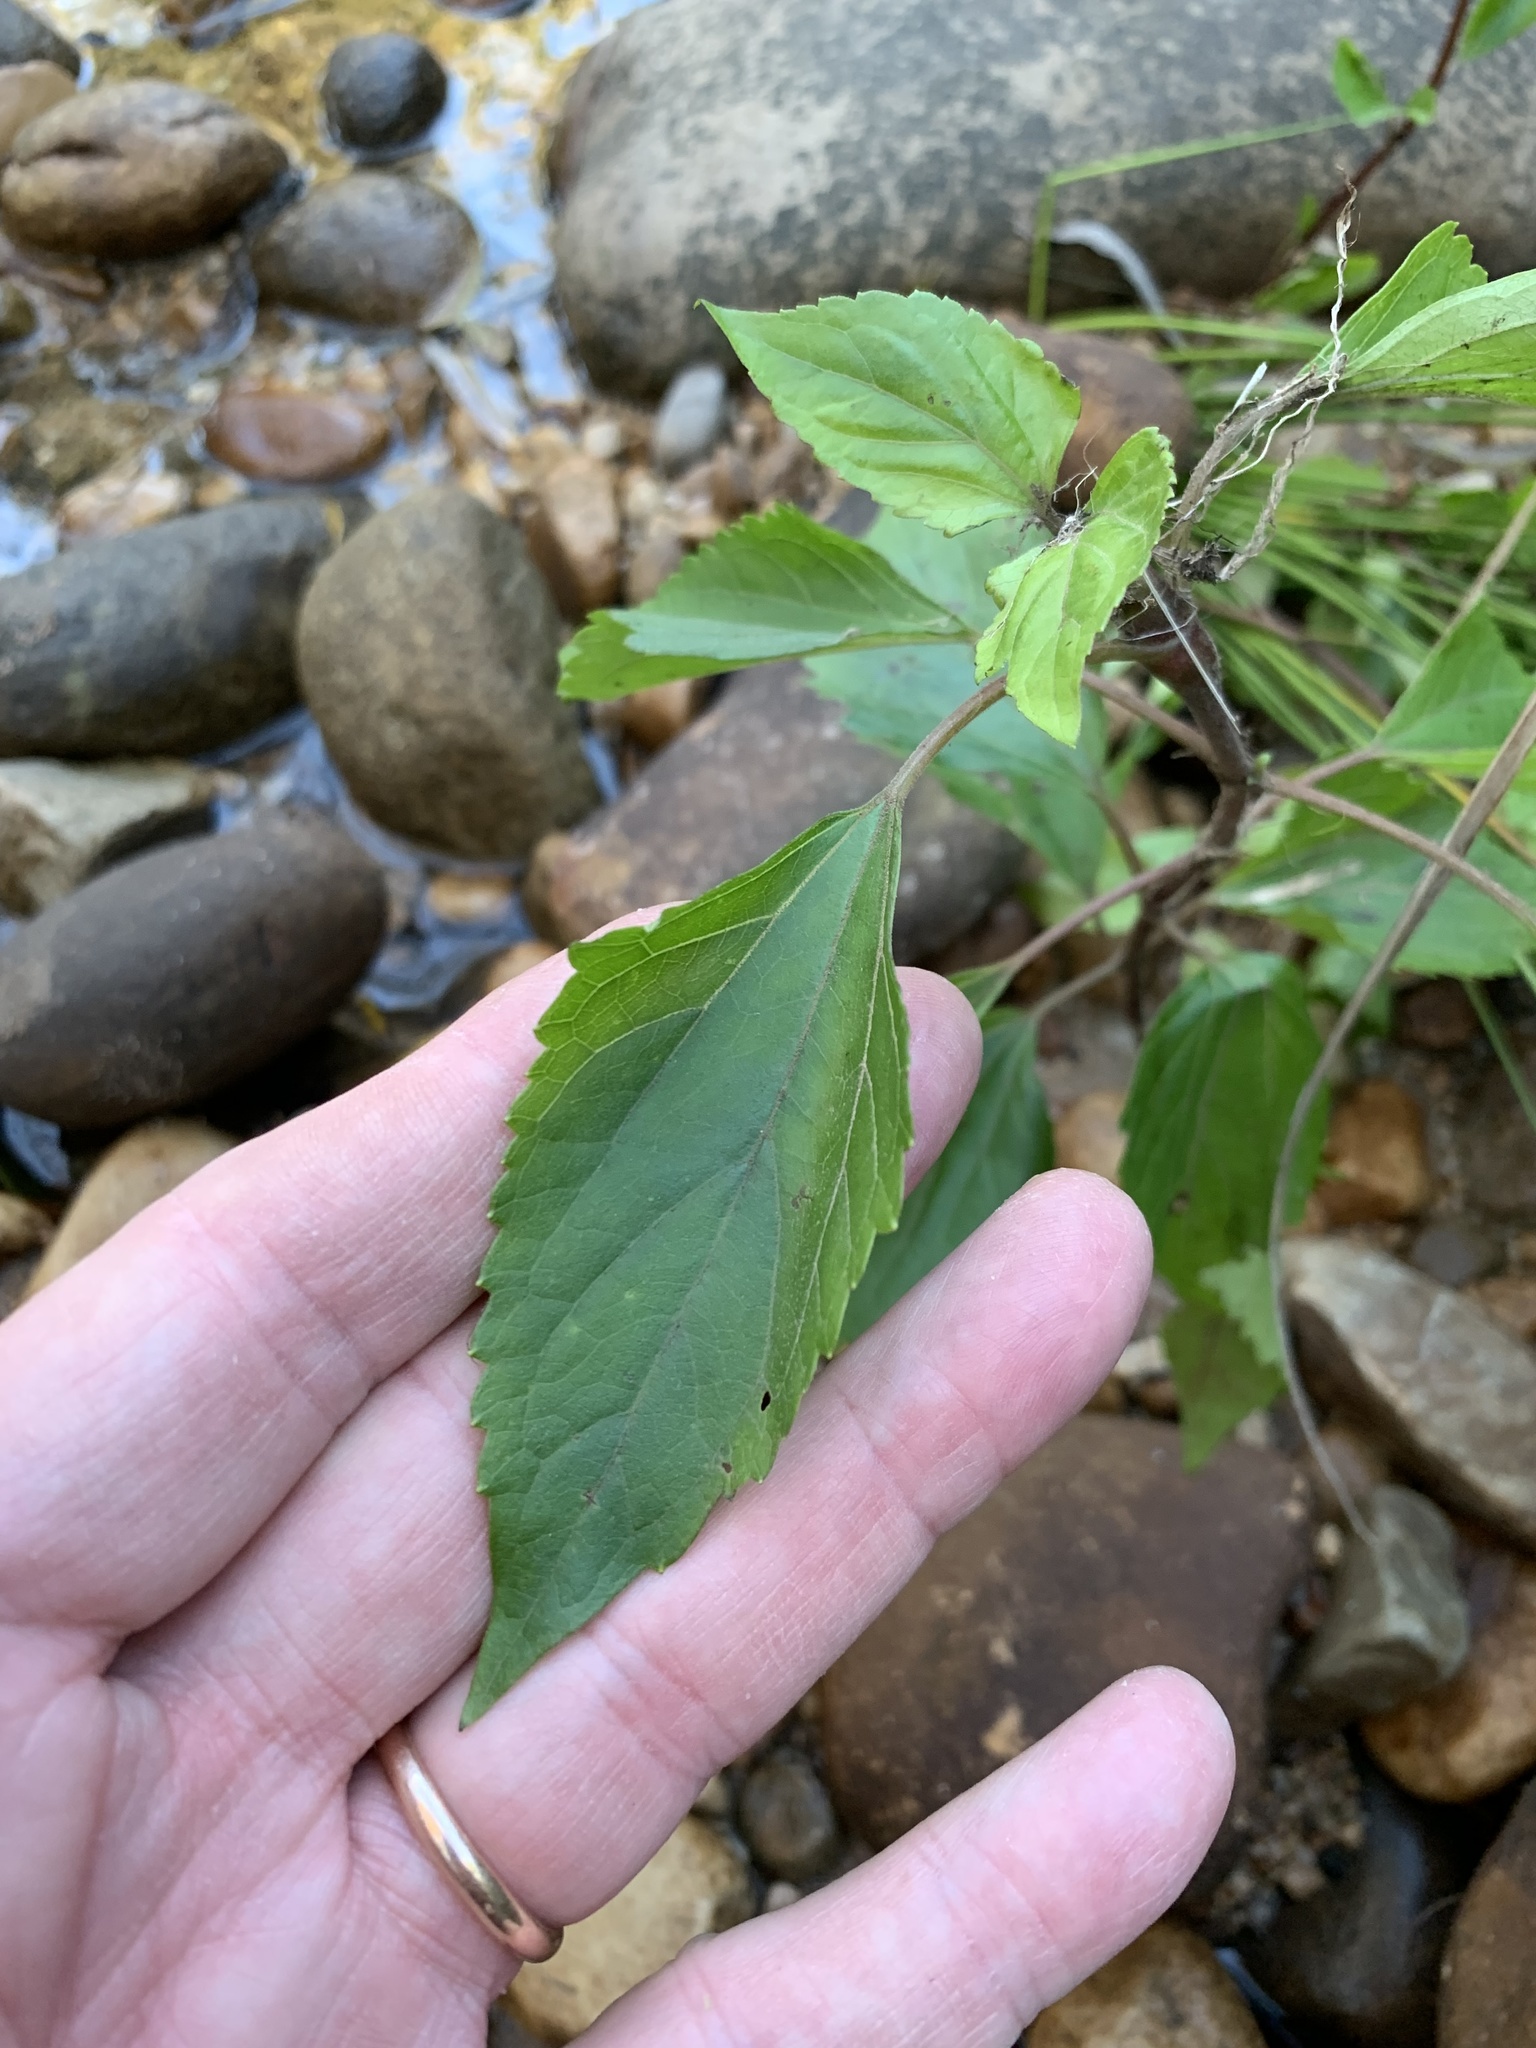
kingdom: Plantae
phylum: Tracheophyta
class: Magnoliopsida
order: Asterales
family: Asteraceae
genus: Ageratina
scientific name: Ageratina adenophora
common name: Sticky snakeroot
